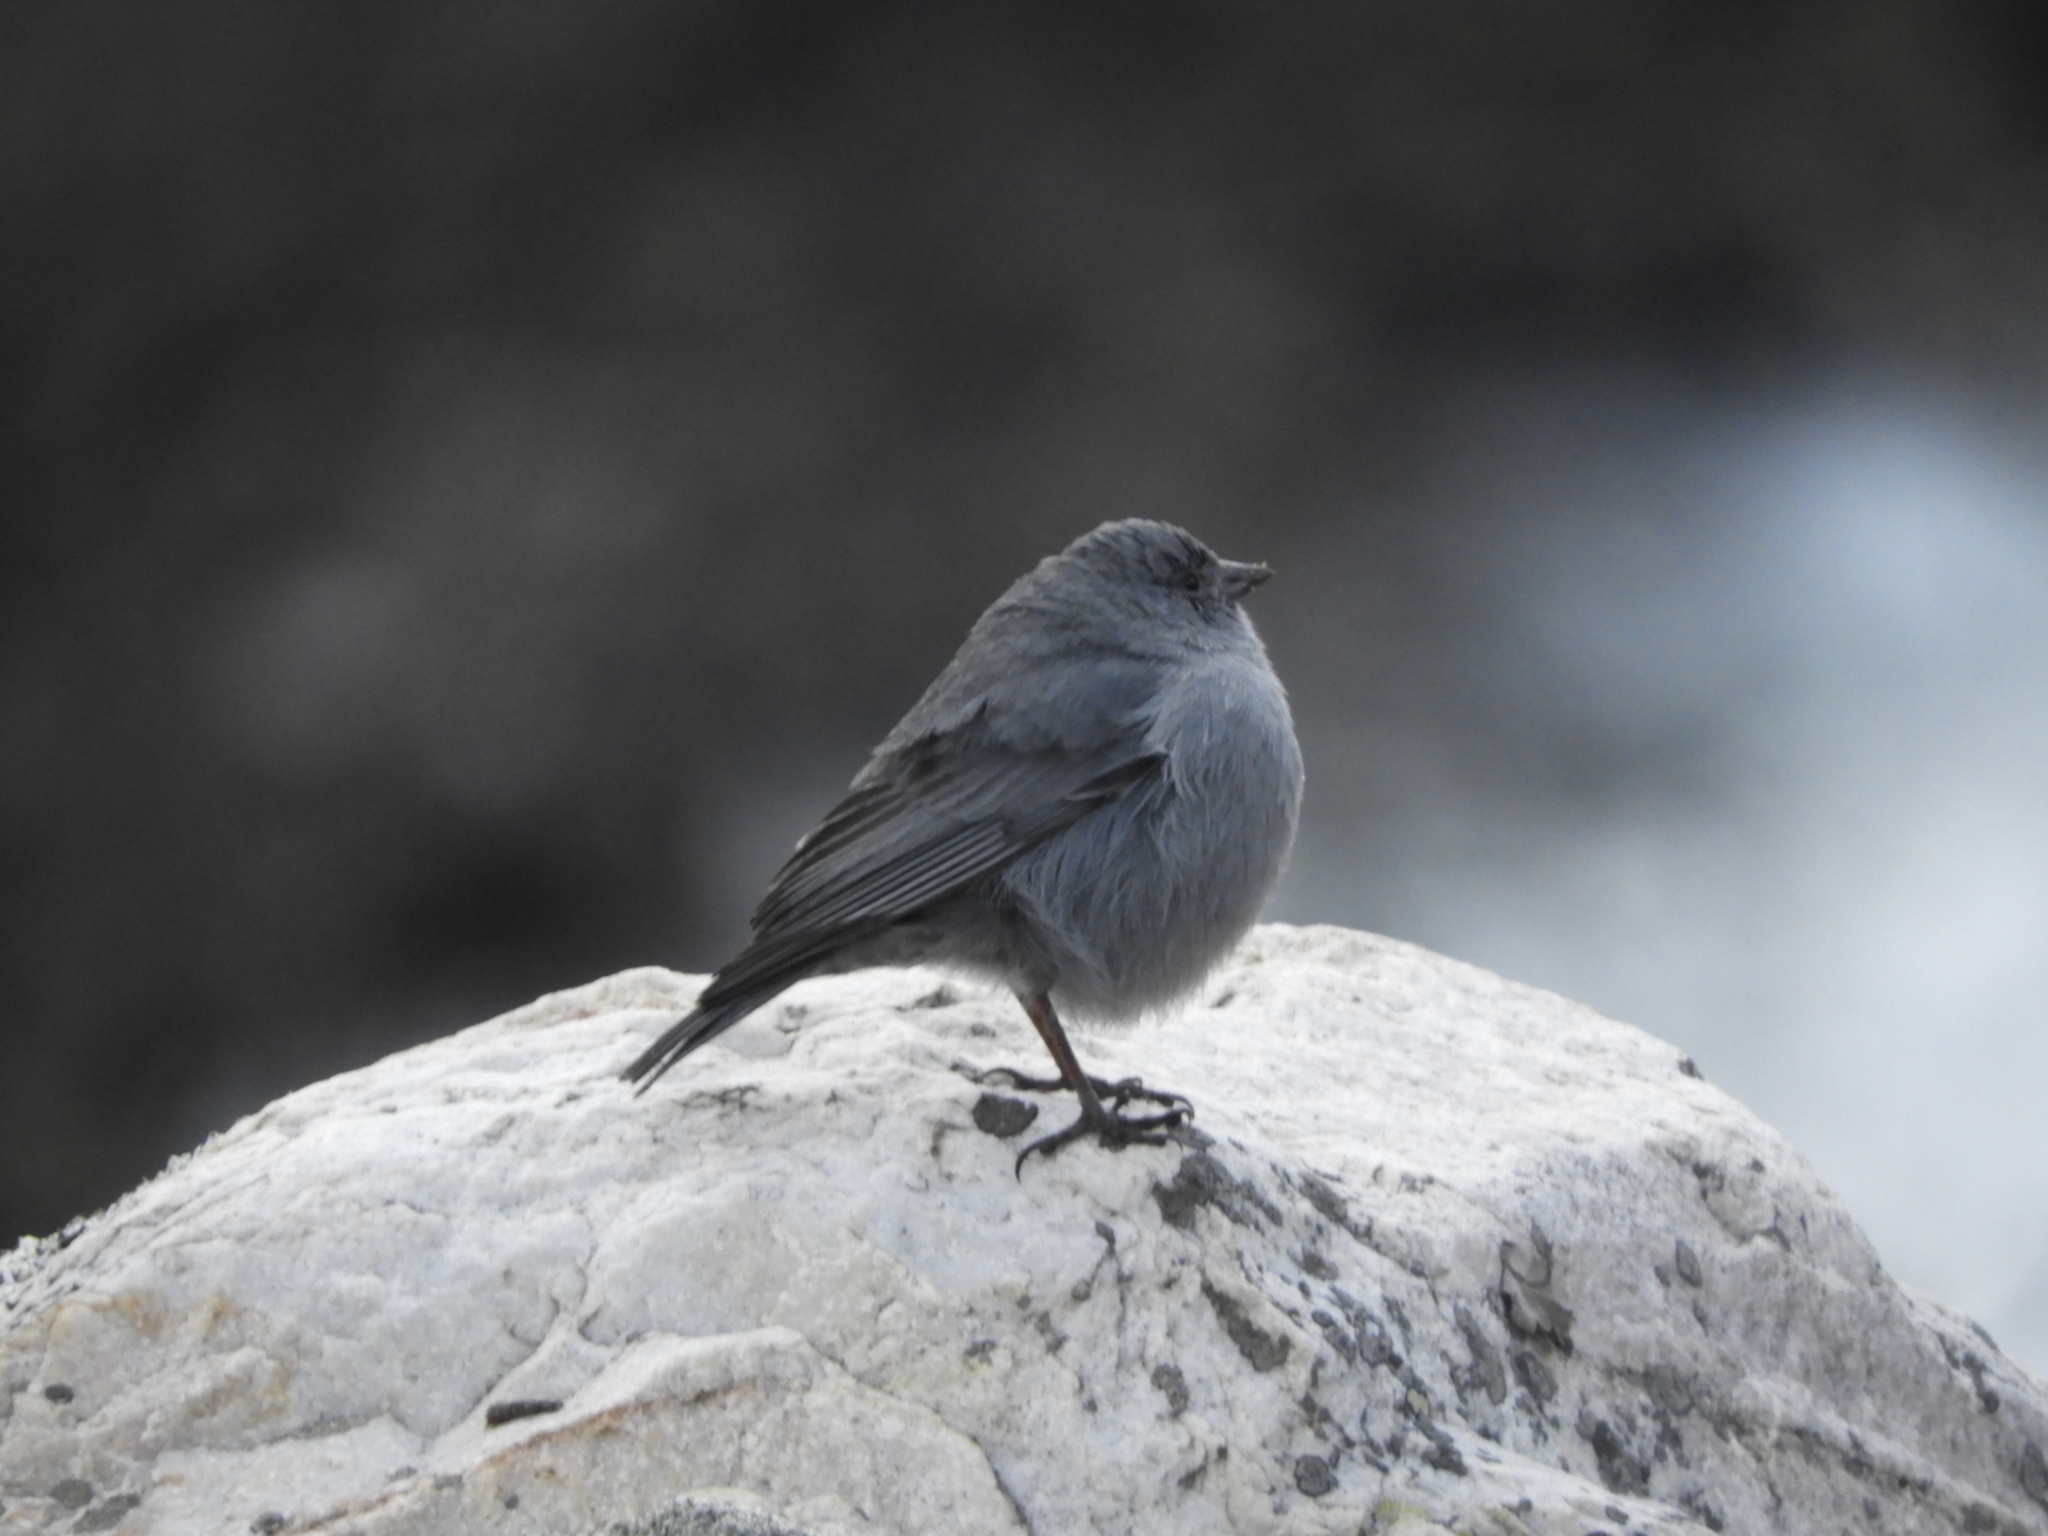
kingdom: Animalia
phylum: Chordata
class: Aves
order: Passeriformes
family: Thraupidae
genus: Geospizopsis
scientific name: Geospizopsis unicolor
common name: Plumbeous sierra-finch
